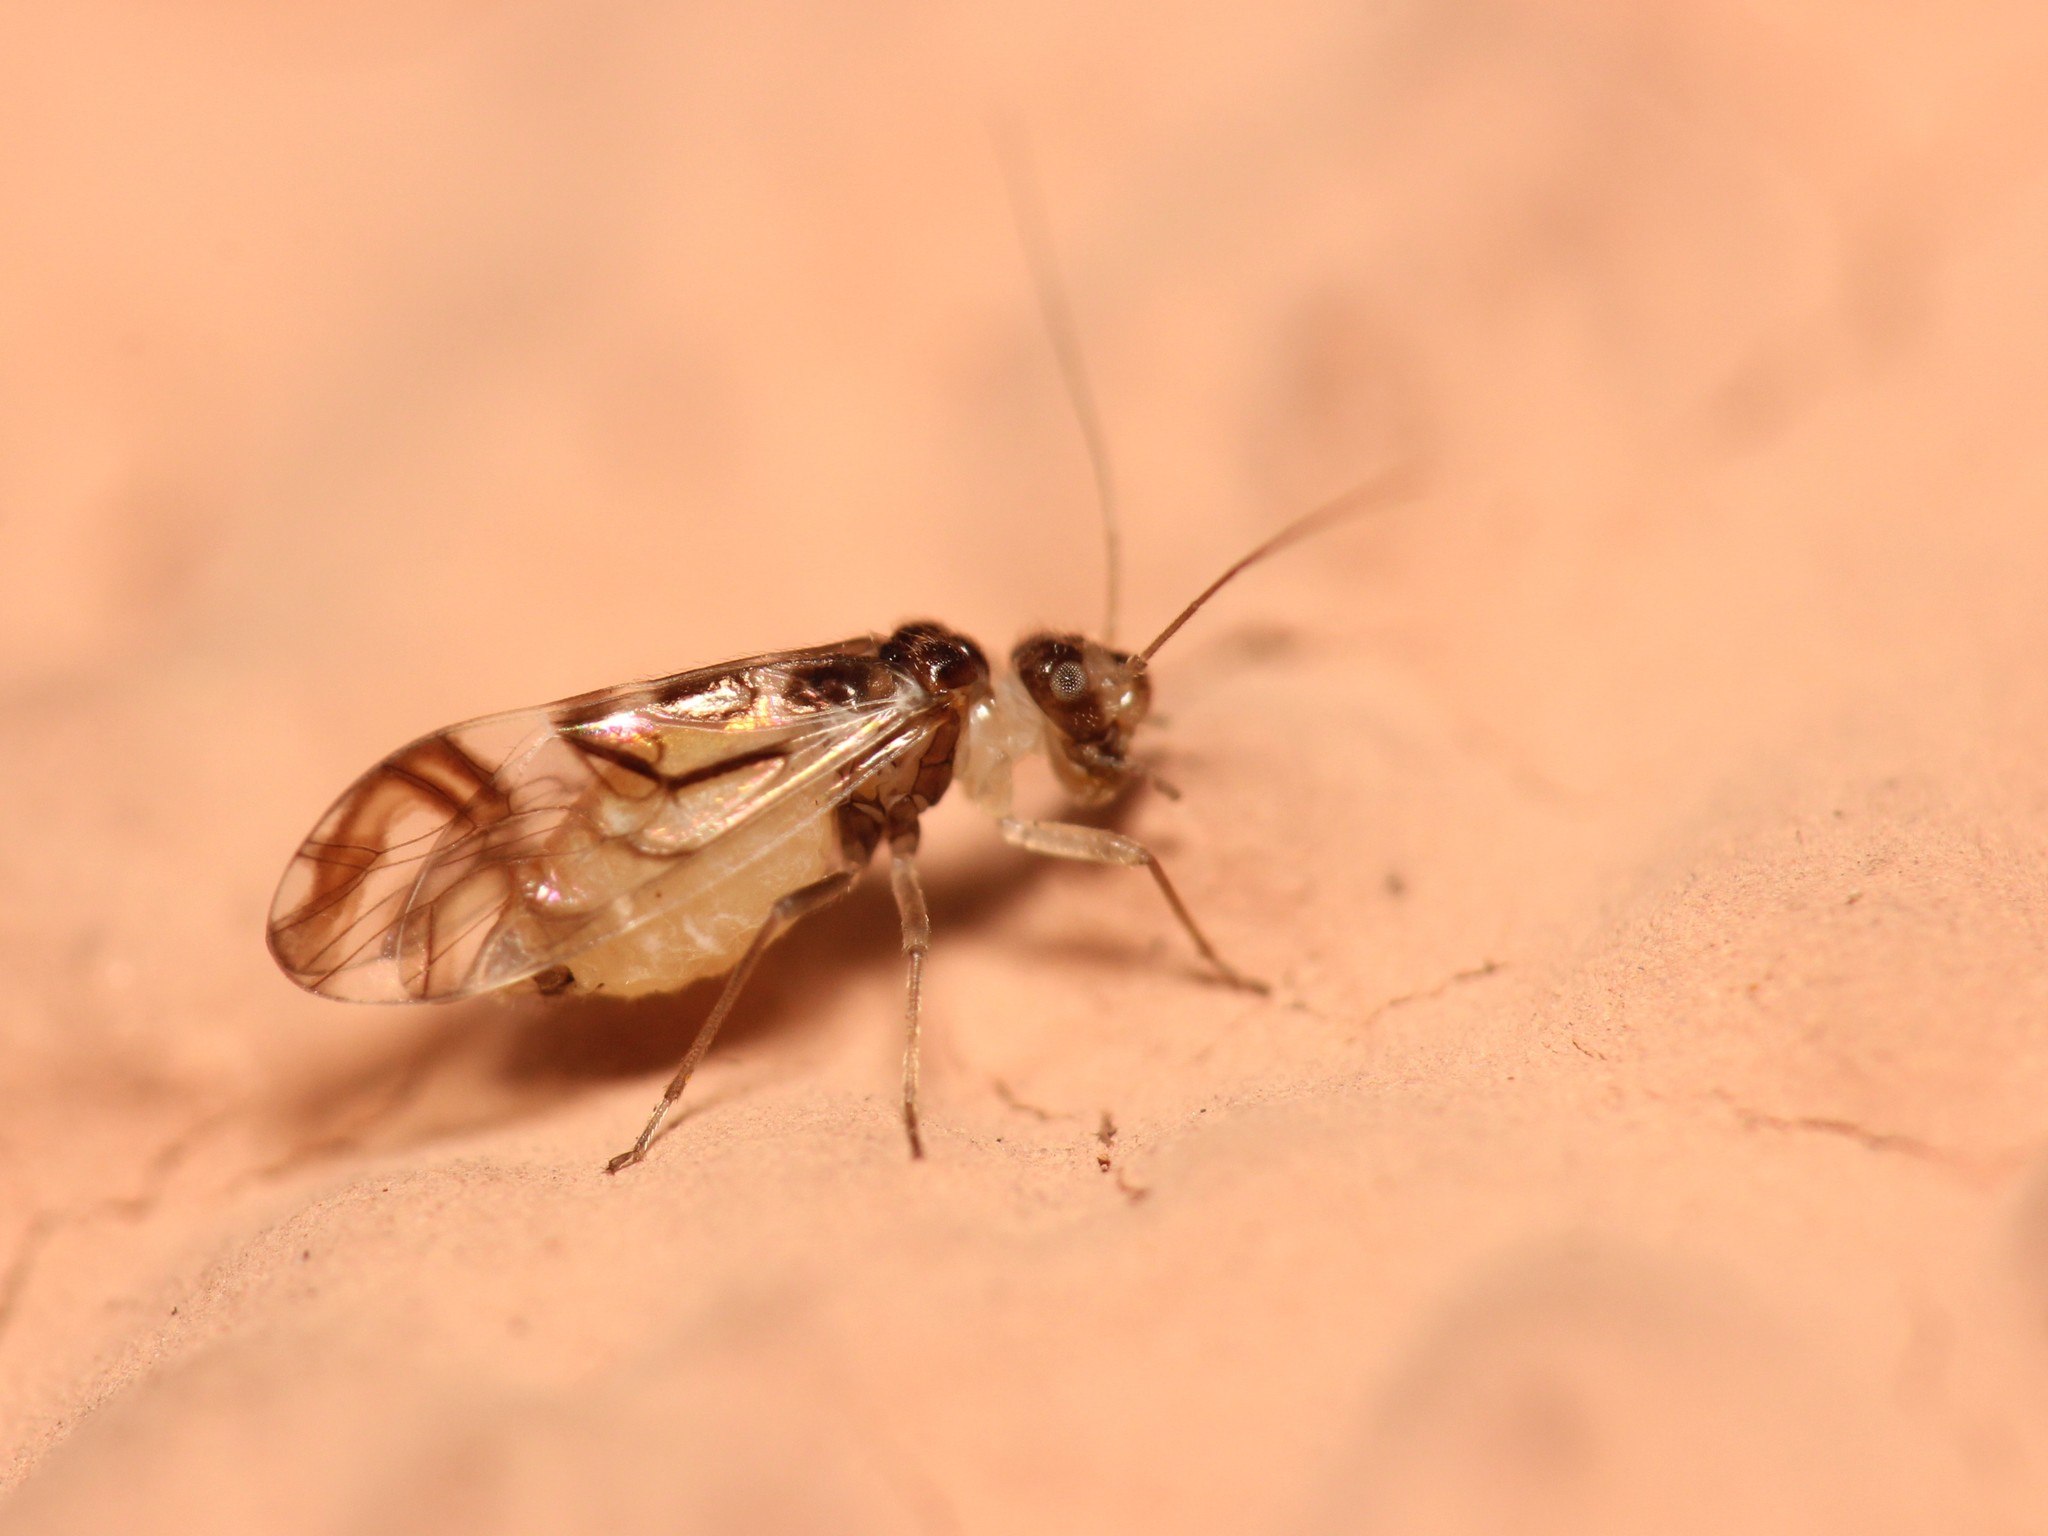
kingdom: Animalia
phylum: Arthropoda
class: Insecta
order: Psocodea
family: Stenopsocidae
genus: Graphopsocus
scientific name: Graphopsocus cruciatus
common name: Lizard bark louse
